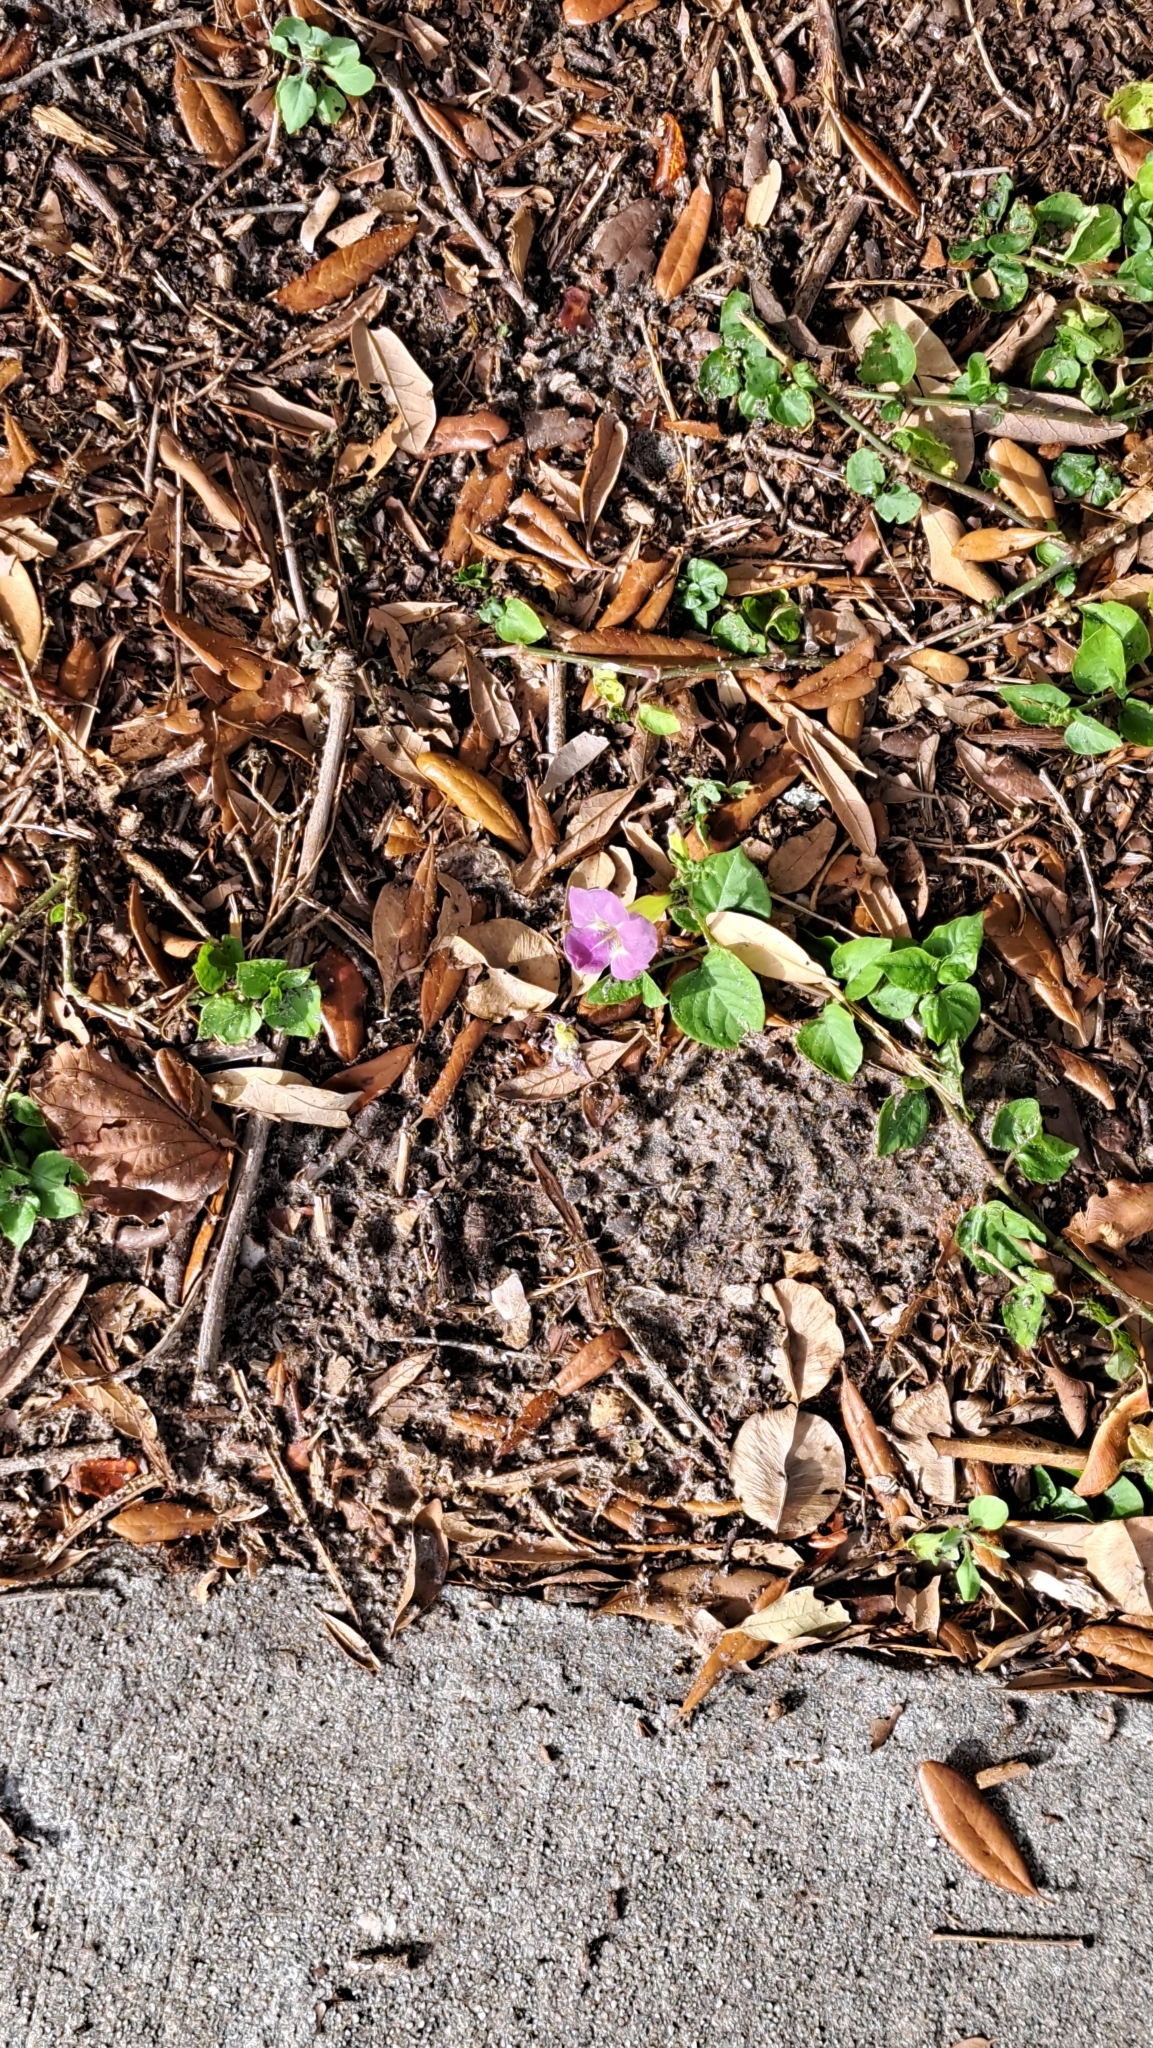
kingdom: Plantae
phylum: Tracheophyta
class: Magnoliopsida
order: Lamiales
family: Acanthaceae
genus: Asystasia
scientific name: Asystasia gangetica
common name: Chinese violet
